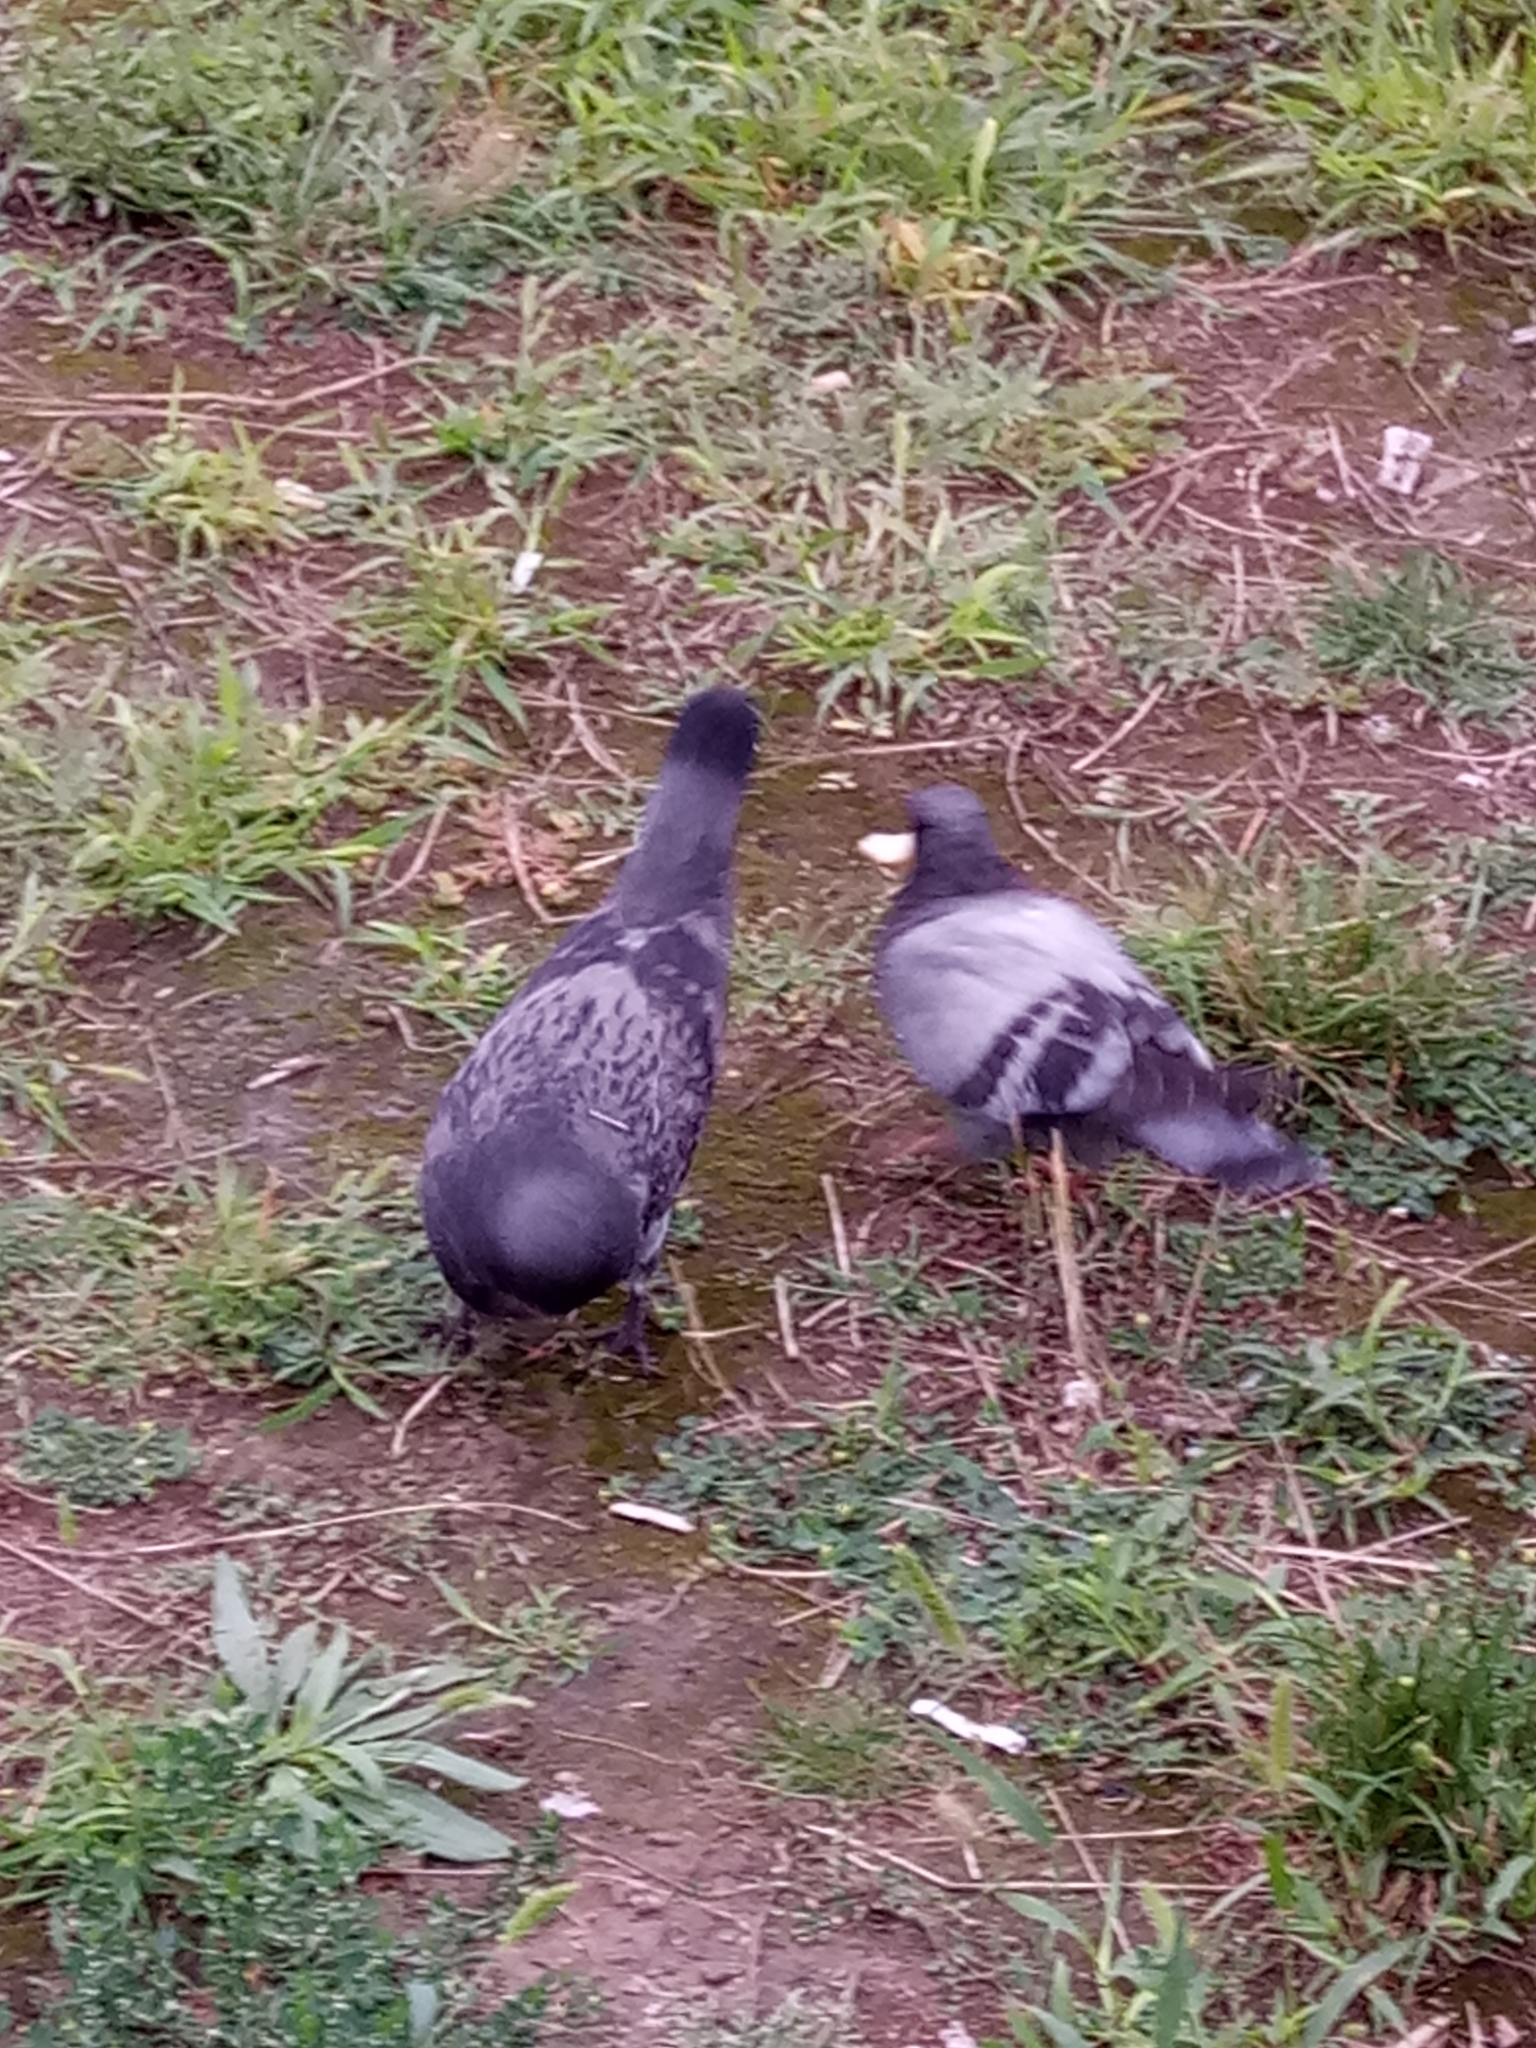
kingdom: Animalia
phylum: Chordata
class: Aves
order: Columbiformes
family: Columbidae
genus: Columba
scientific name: Columba livia
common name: Rock pigeon
